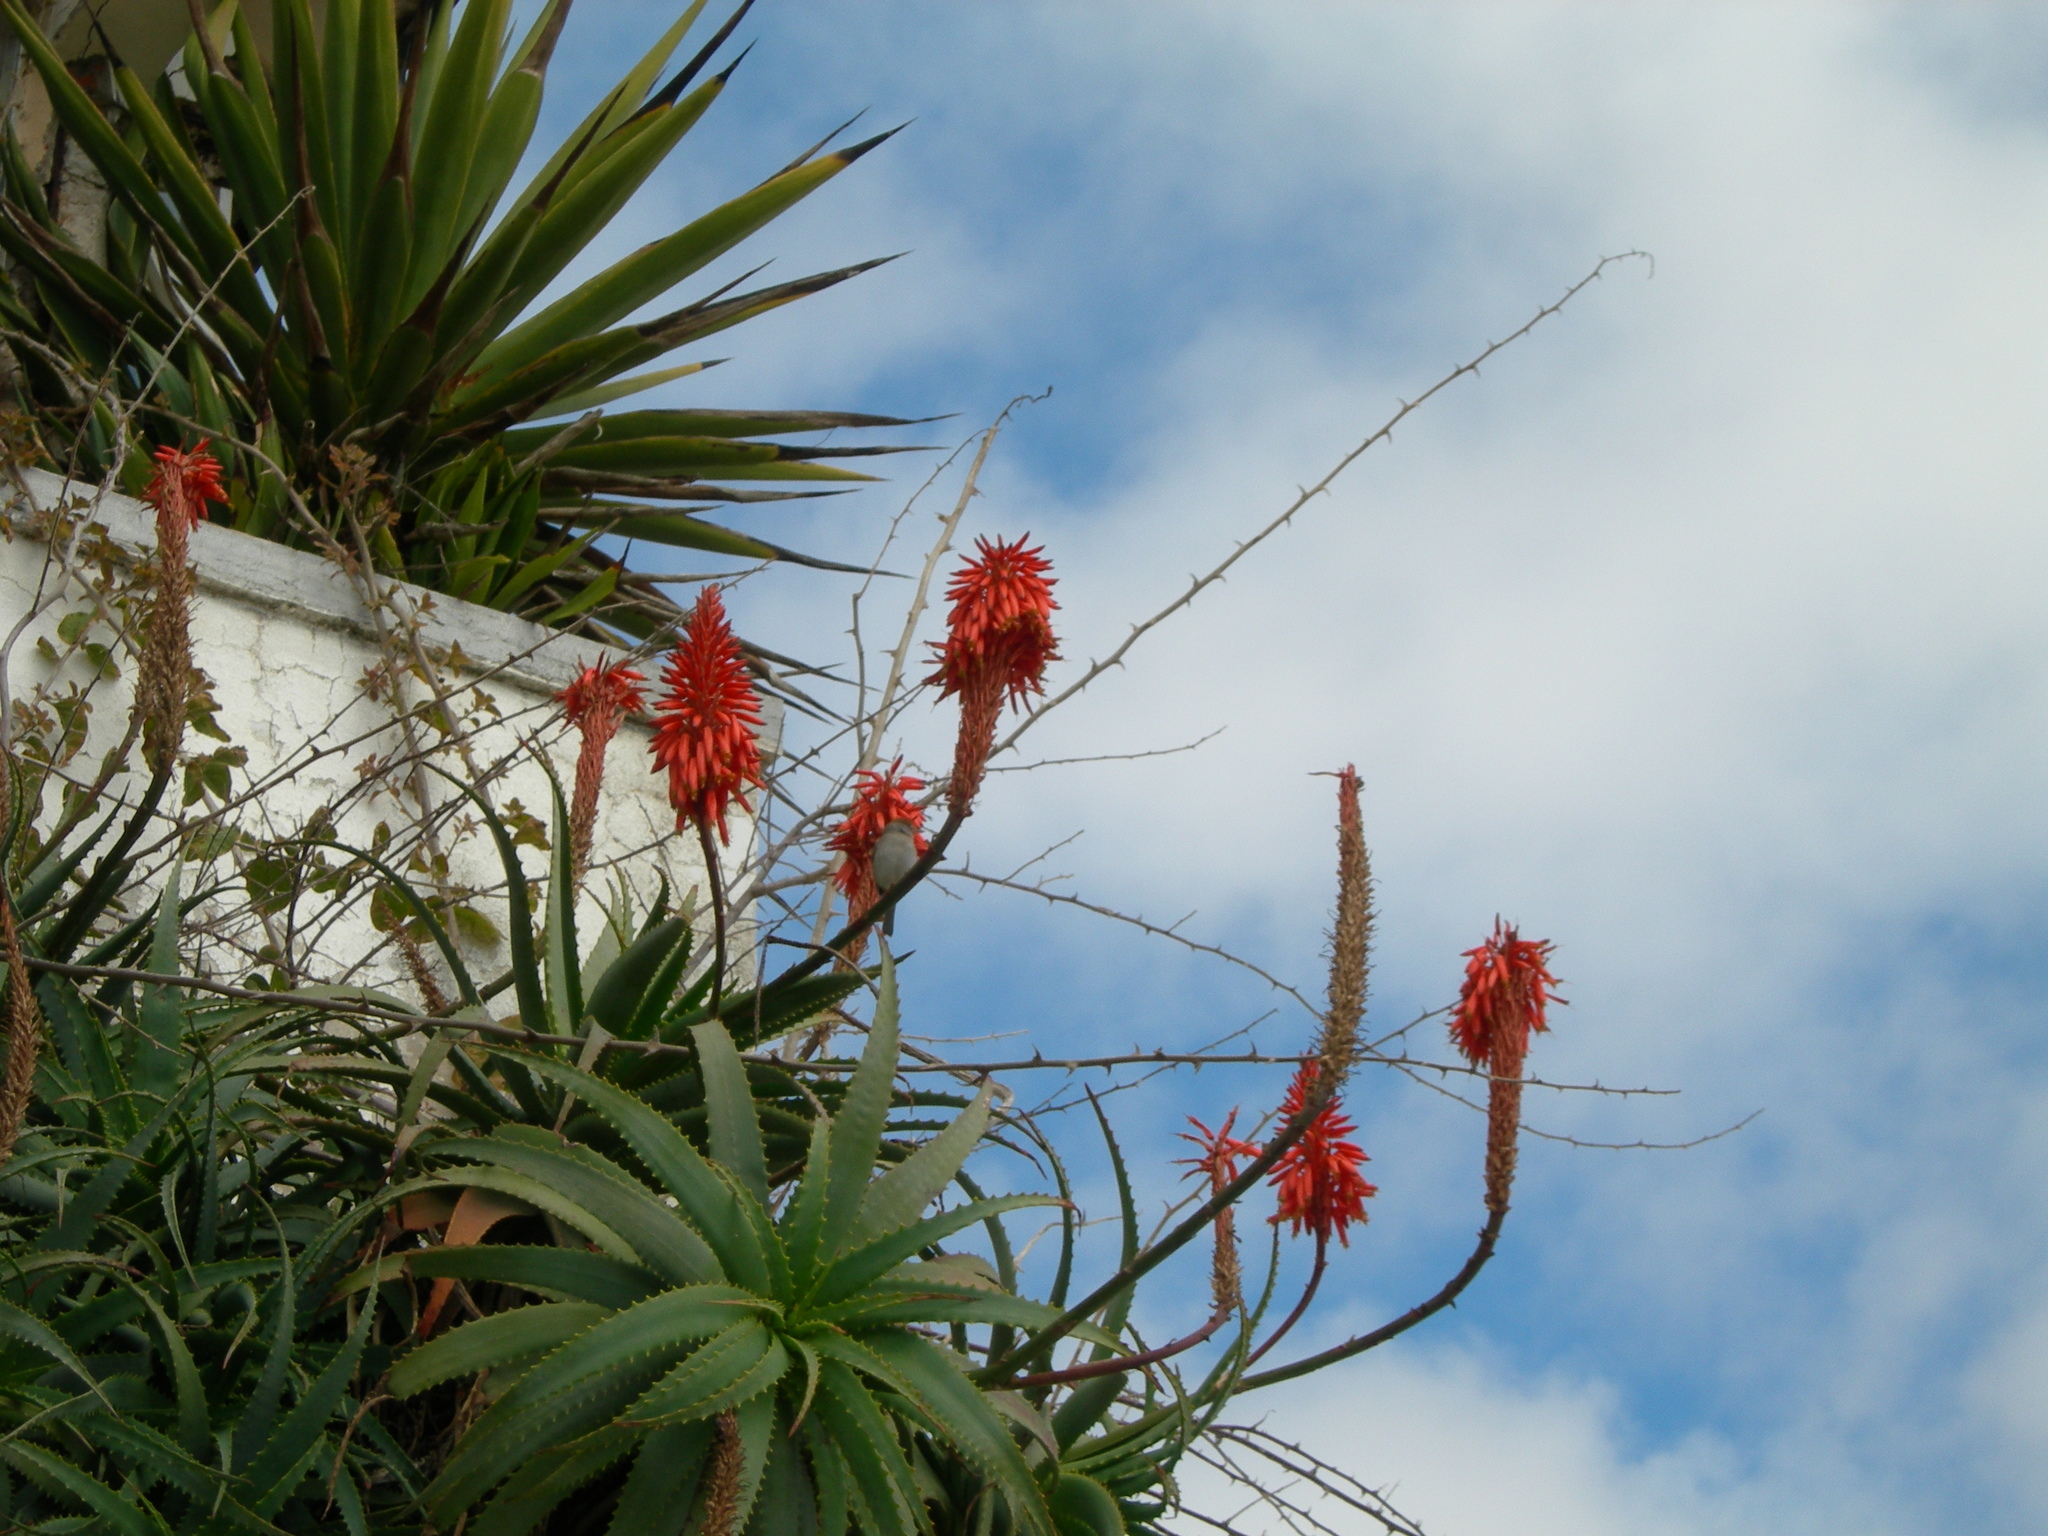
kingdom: Plantae
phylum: Tracheophyta
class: Liliopsida
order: Asparagales
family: Asphodelaceae
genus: Aloe
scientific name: Aloe arborescens
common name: Candelabra aloe
